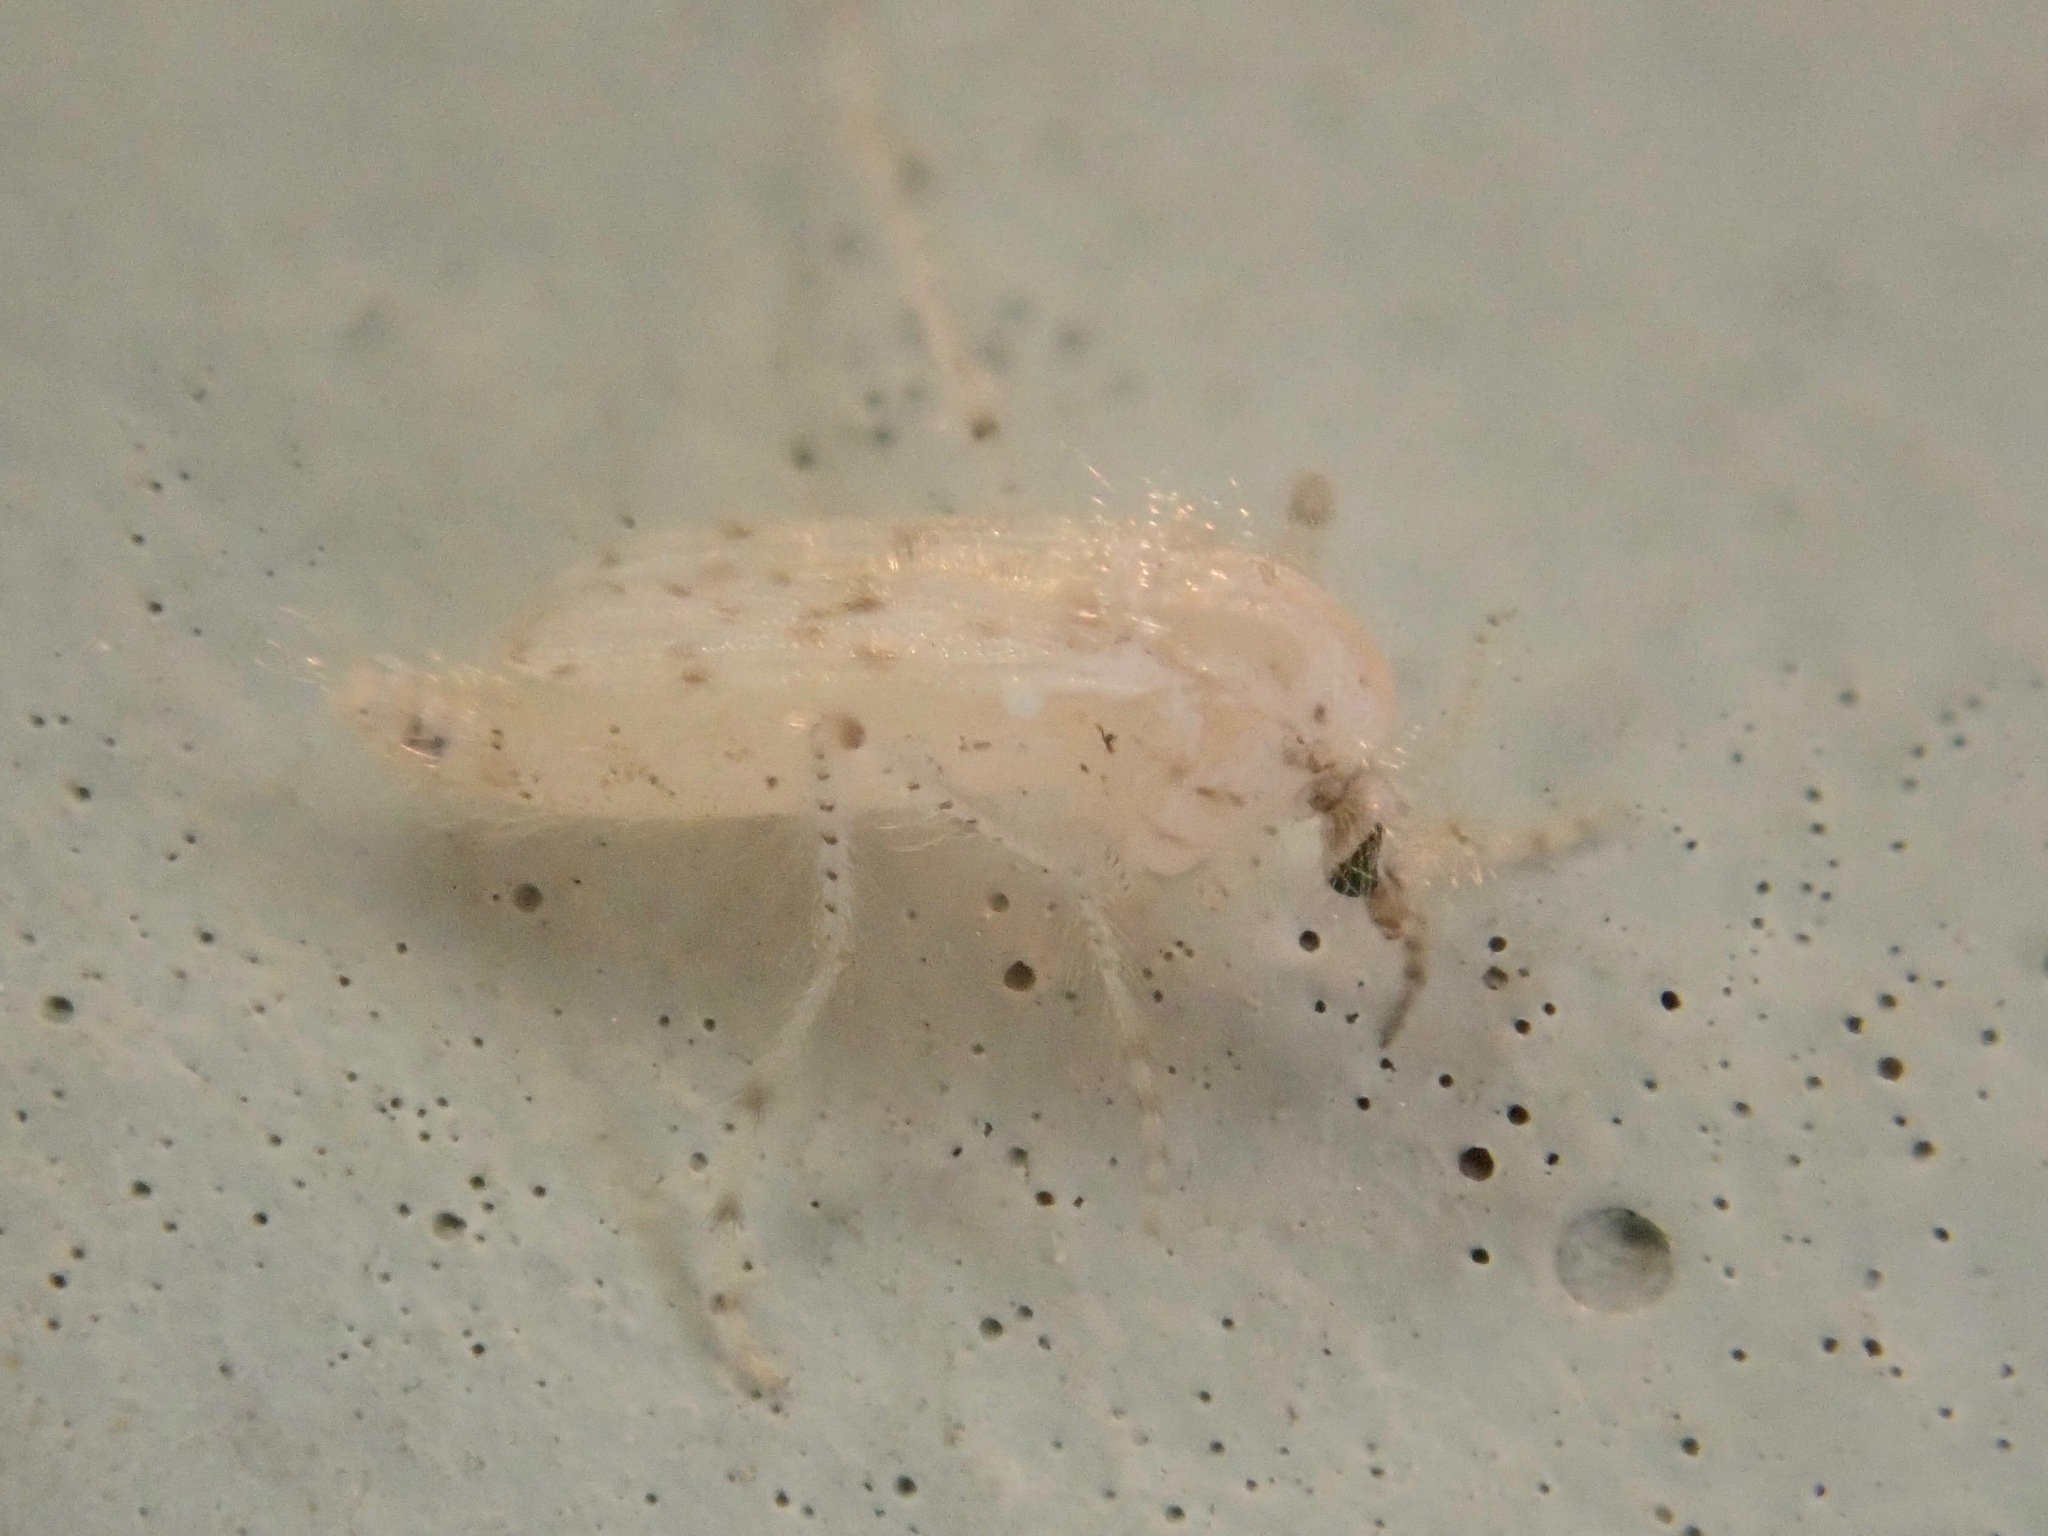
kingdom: Animalia
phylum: Arthropoda
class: Insecta
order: Diptera
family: Chaoboridae
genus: Chaoborus
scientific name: Chaoborus maculipes
